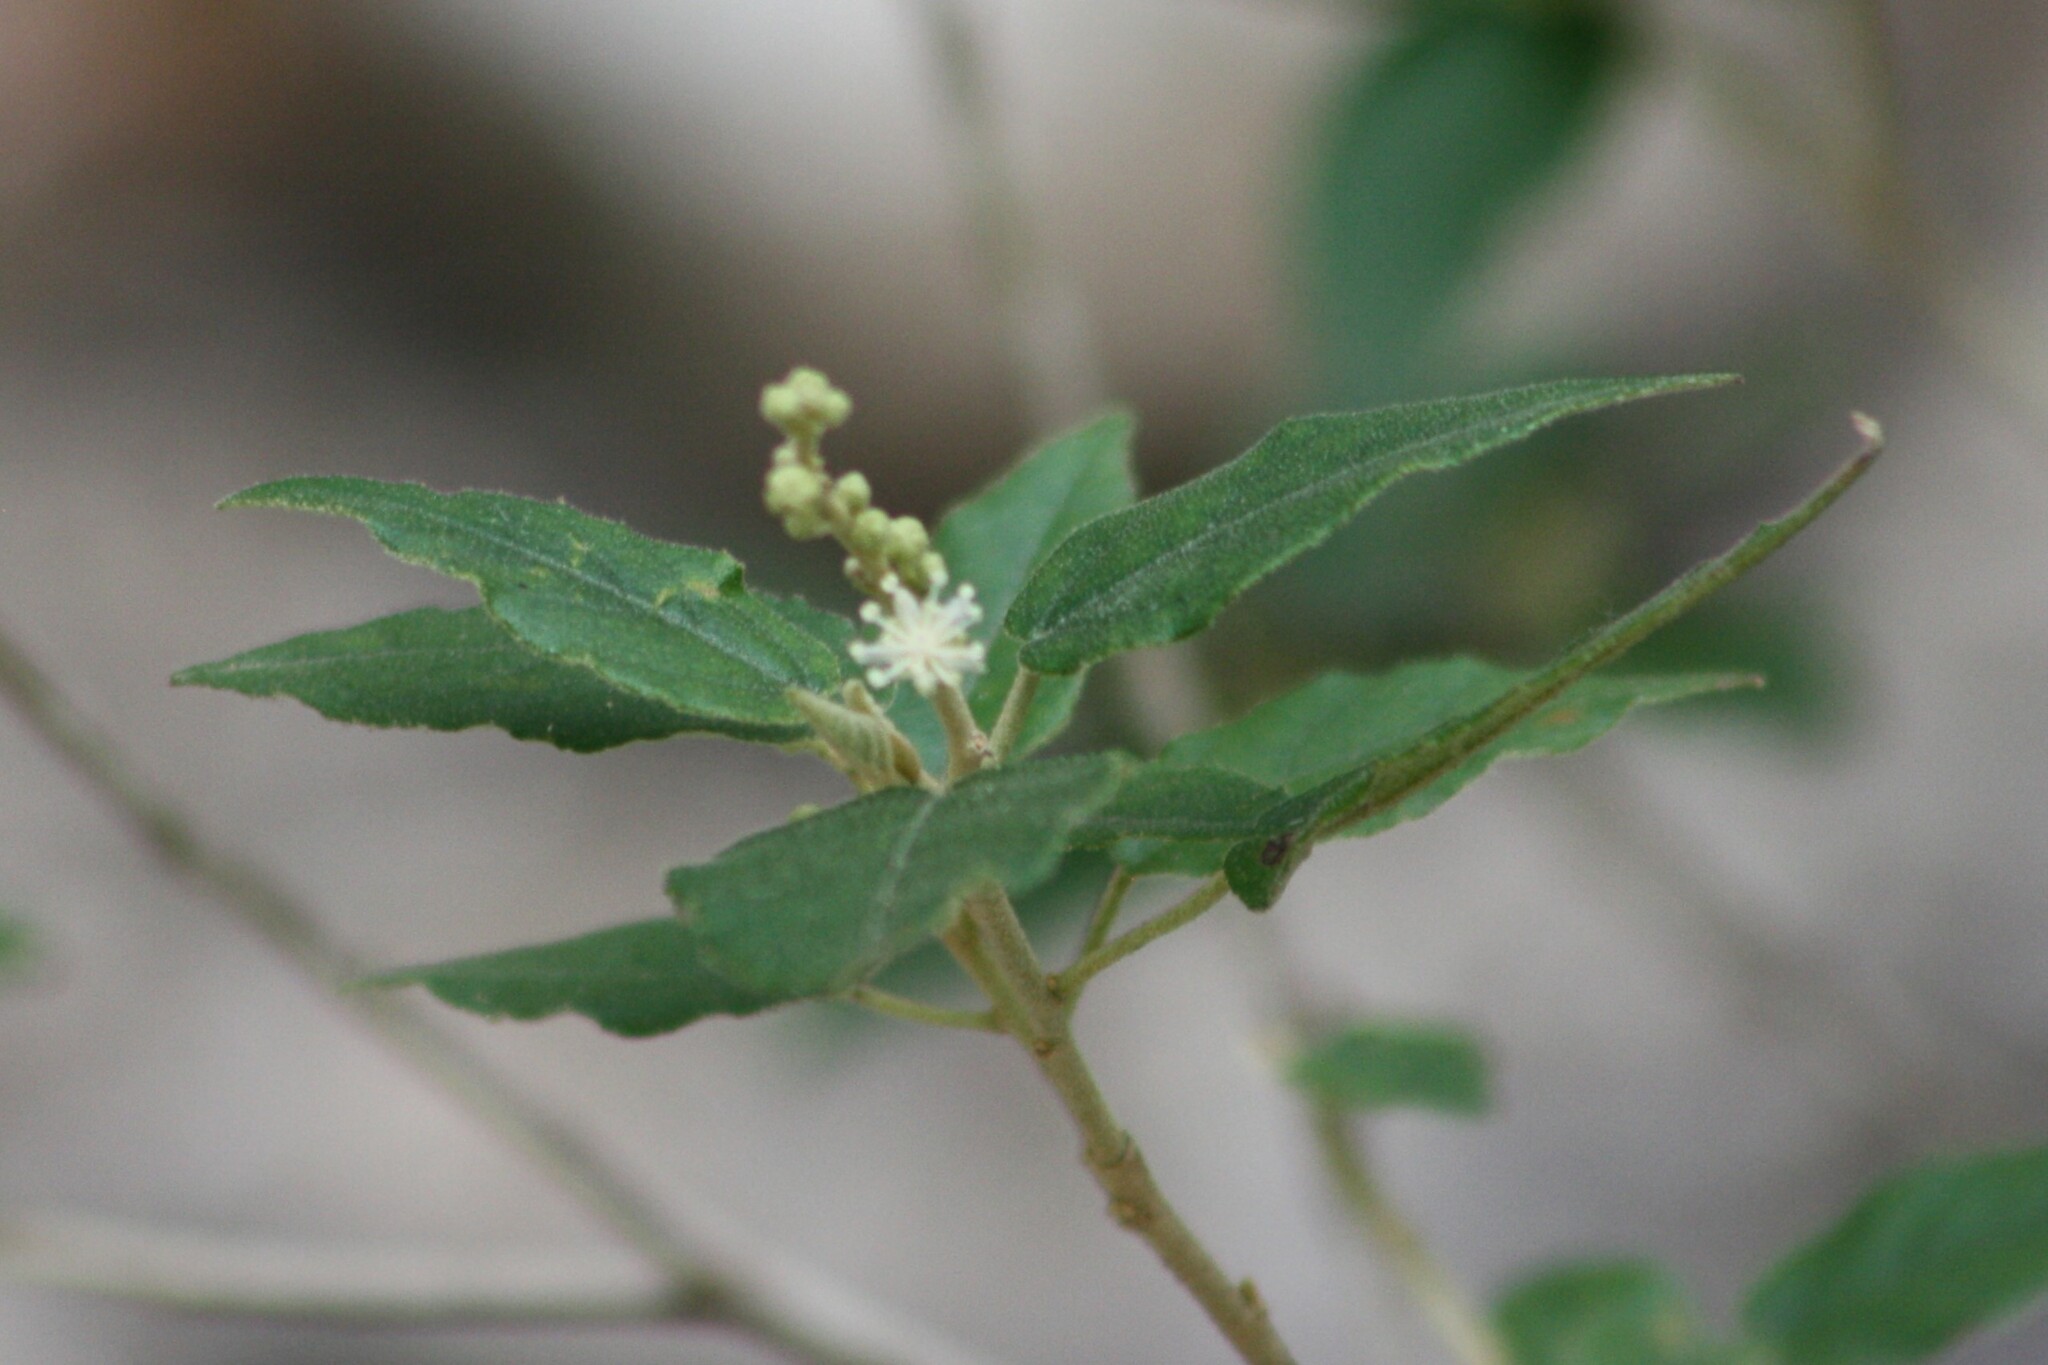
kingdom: Plantae
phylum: Tracheophyta
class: Magnoliopsida
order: Malpighiales
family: Euphorbiaceae
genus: Croton
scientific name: Croton fruticulosus
